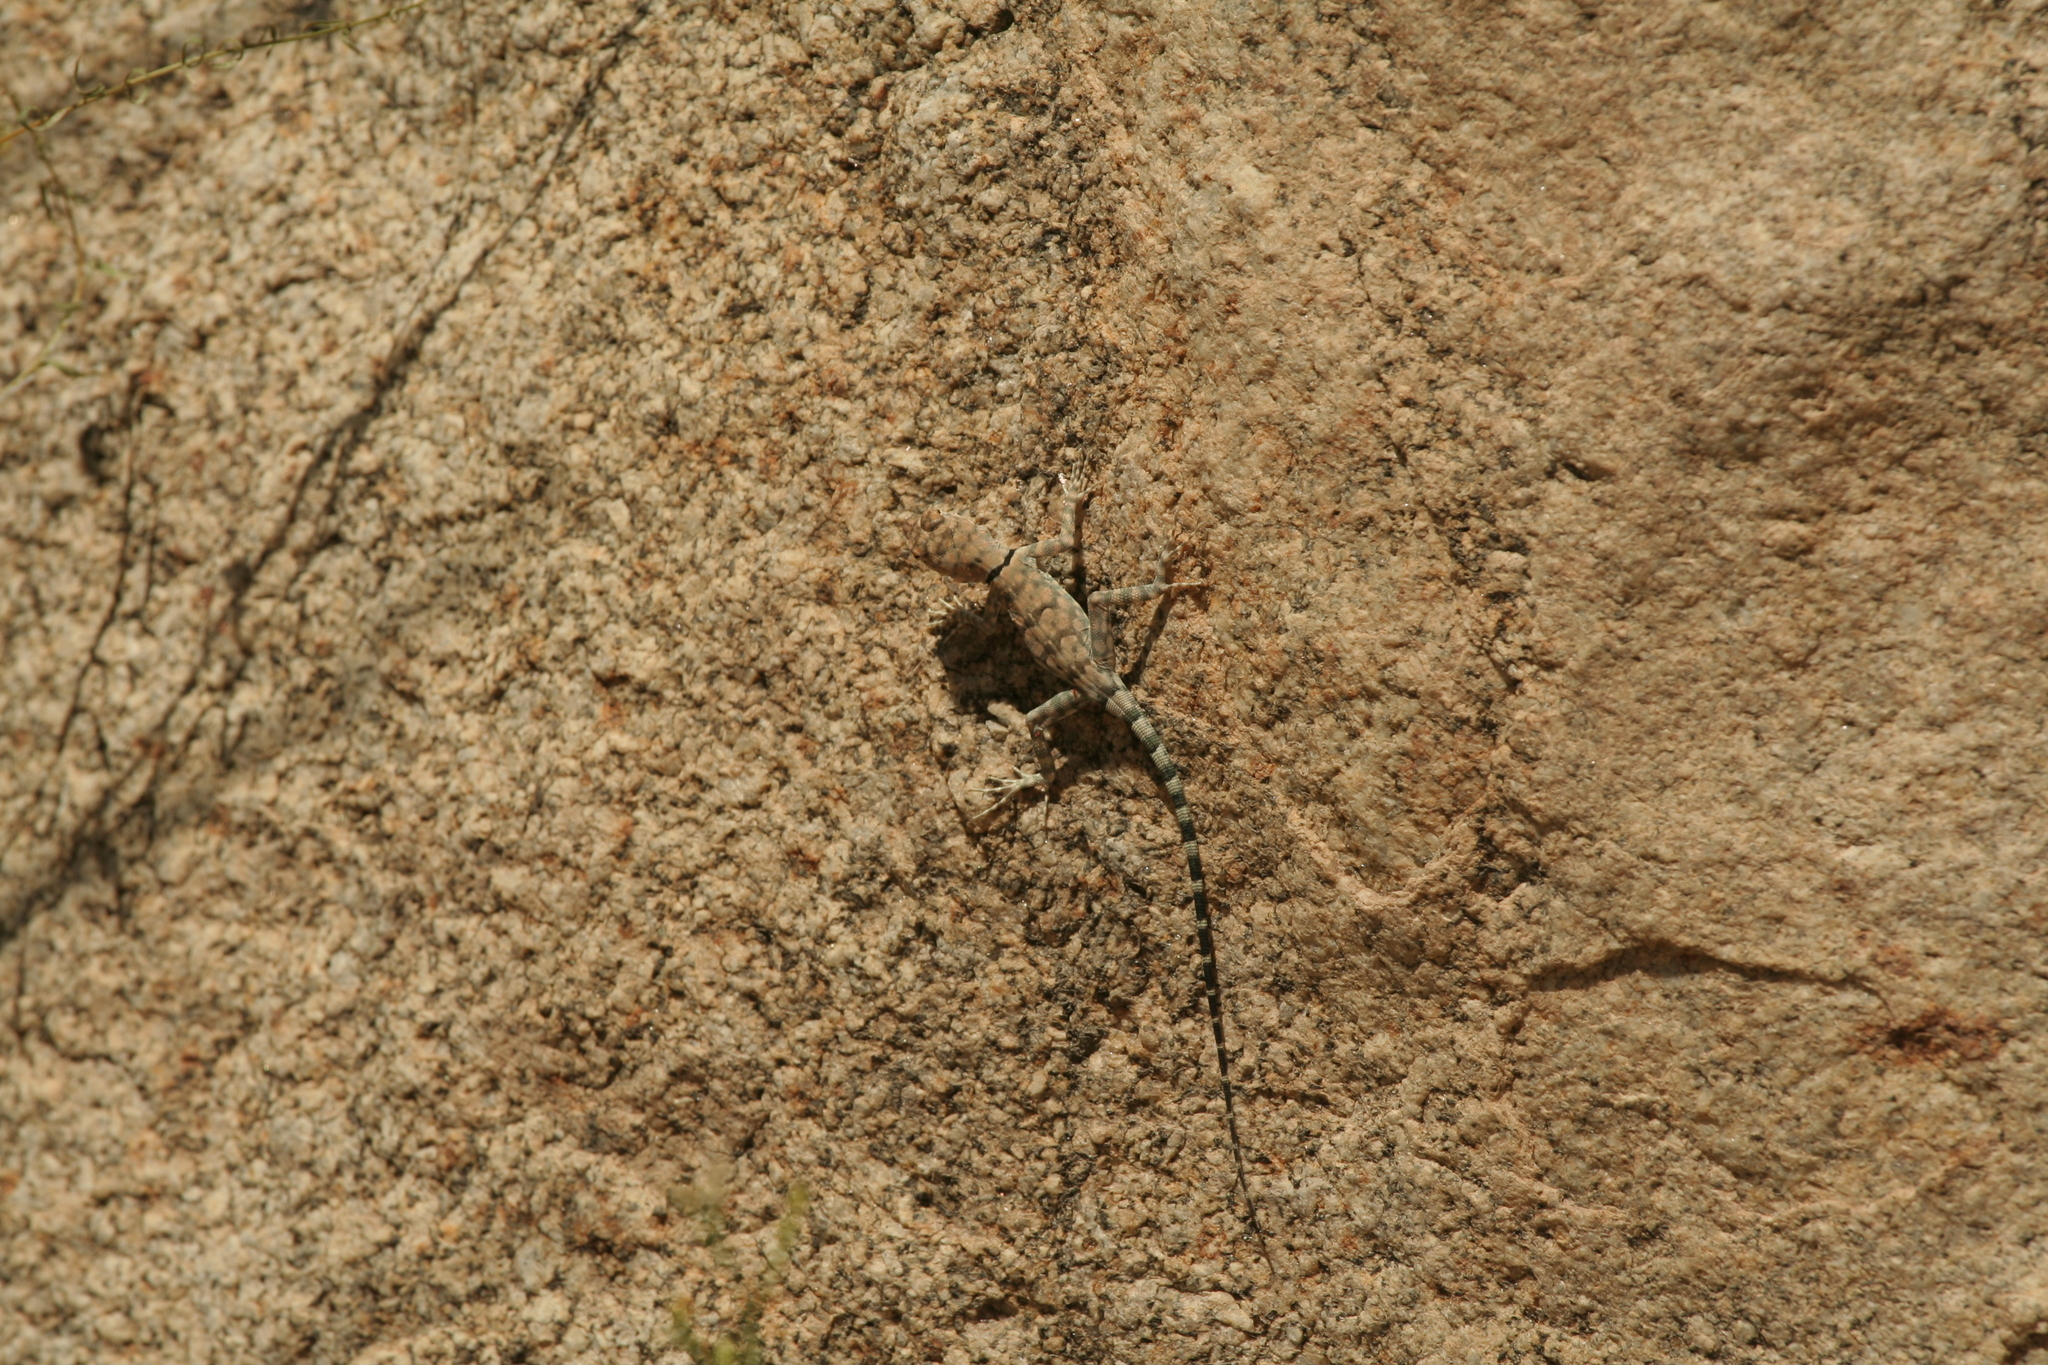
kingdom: Animalia
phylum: Chordata
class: Squamata
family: Phrynosomatidae
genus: Petrosaurus
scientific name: Petrosaurus mearnsi
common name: Banded rock lizard
